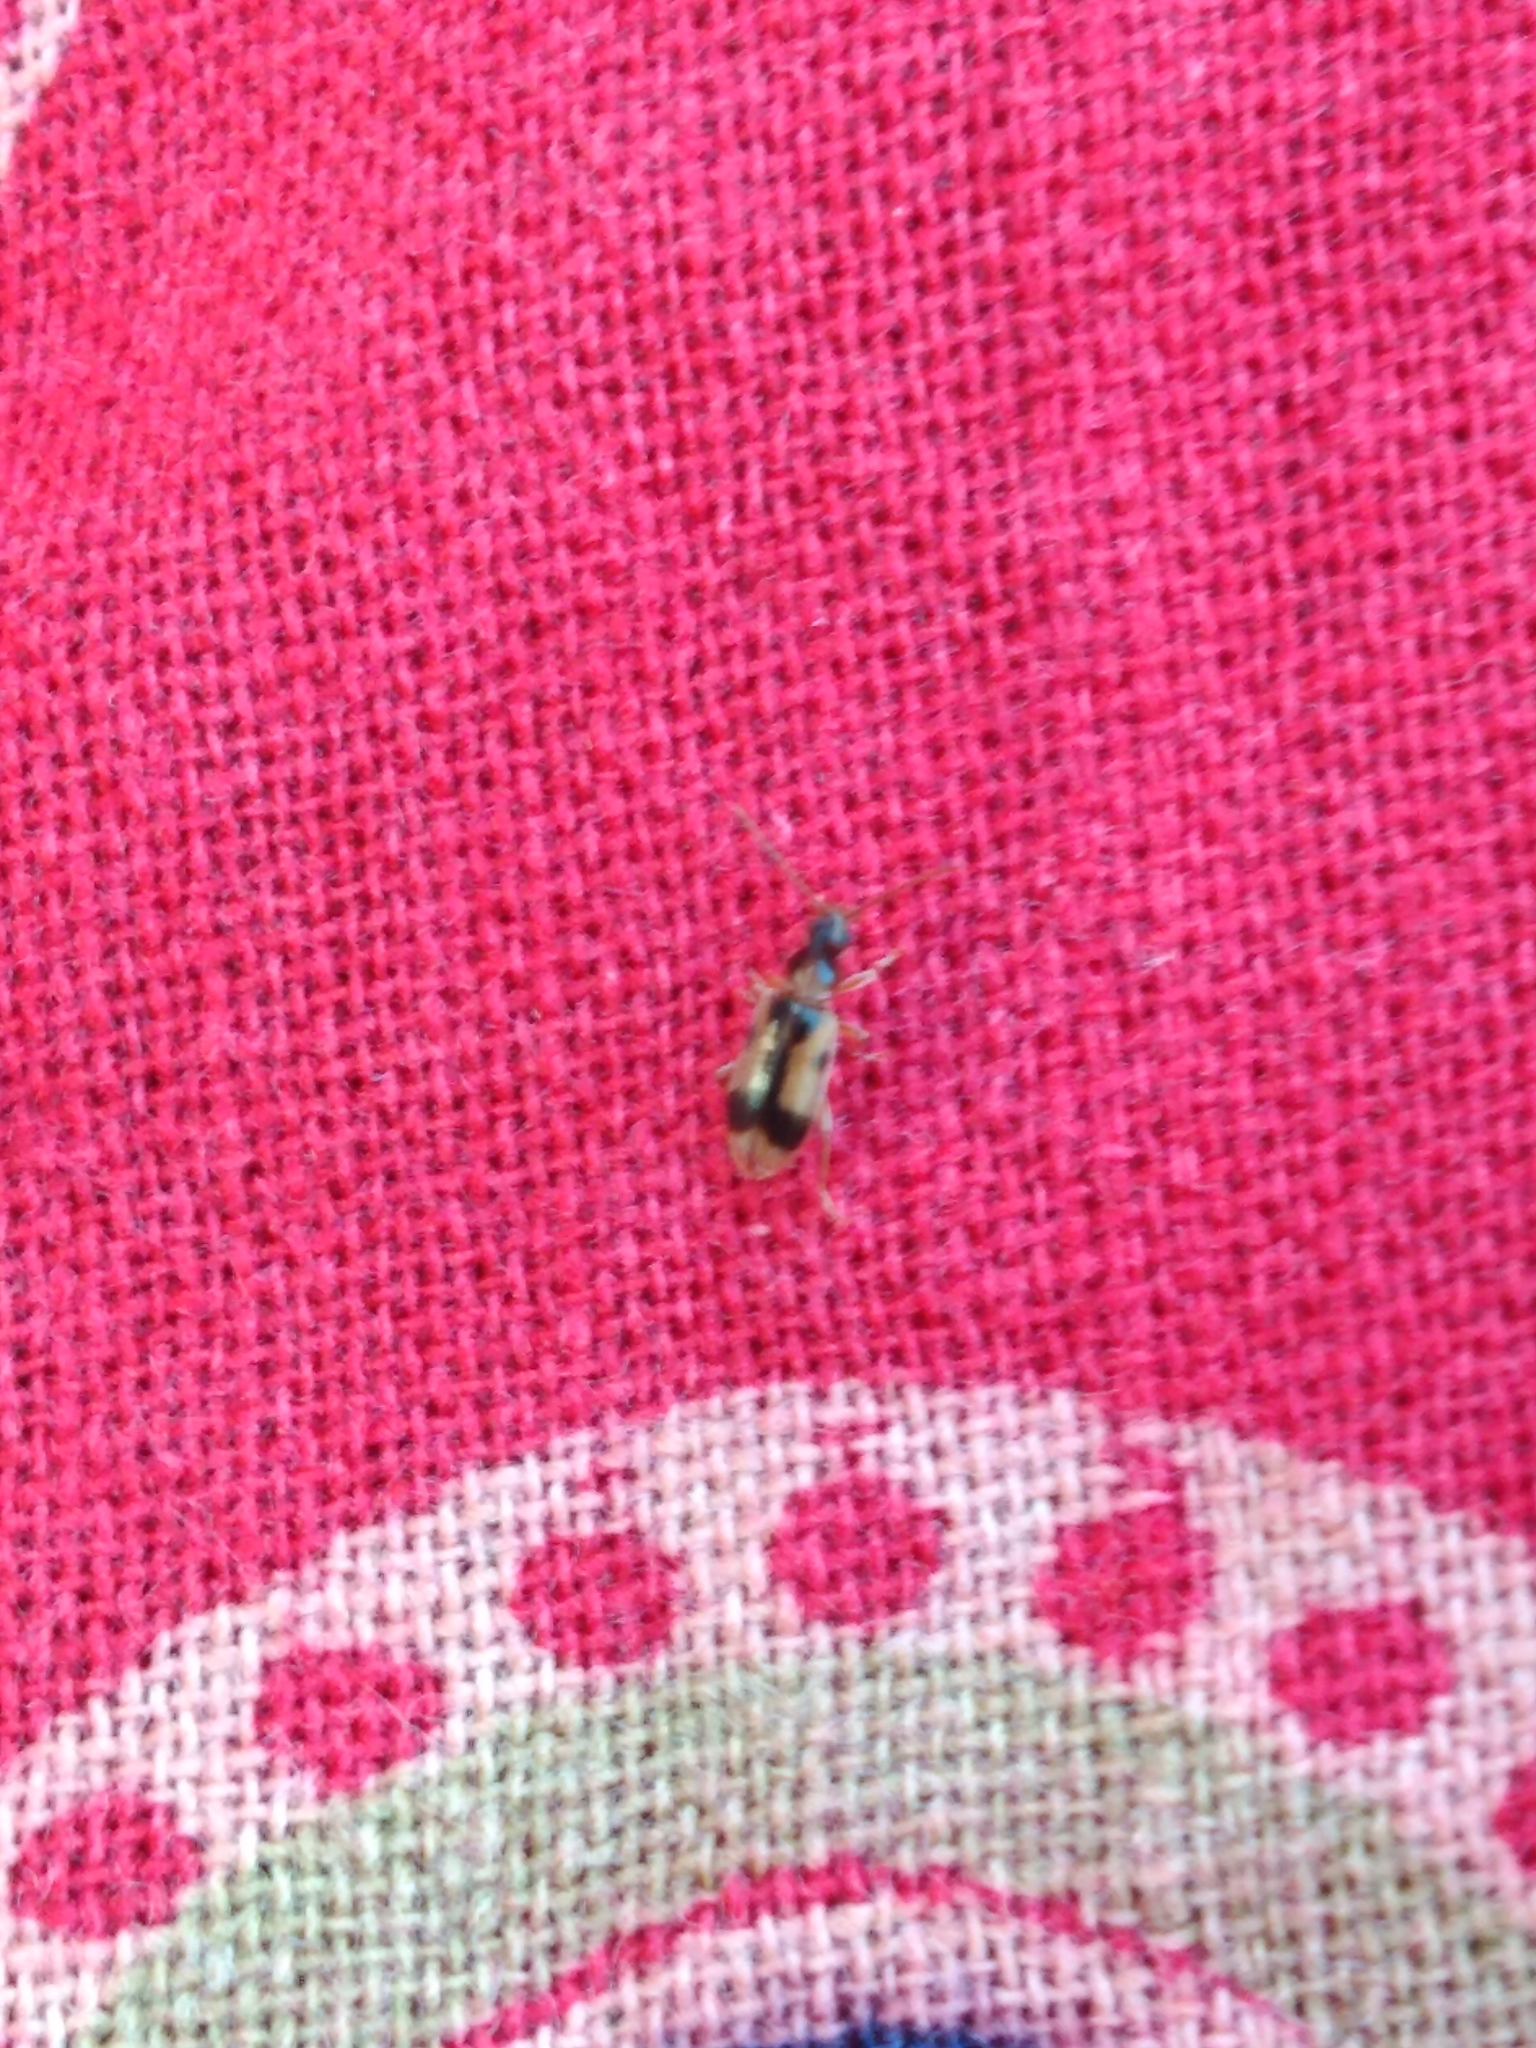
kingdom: Animalia
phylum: Arthropoda
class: Insecta
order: Coleoptera
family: Anthicidae
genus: Notoxus
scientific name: Notoxus monoceros
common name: Monoceros beetle
